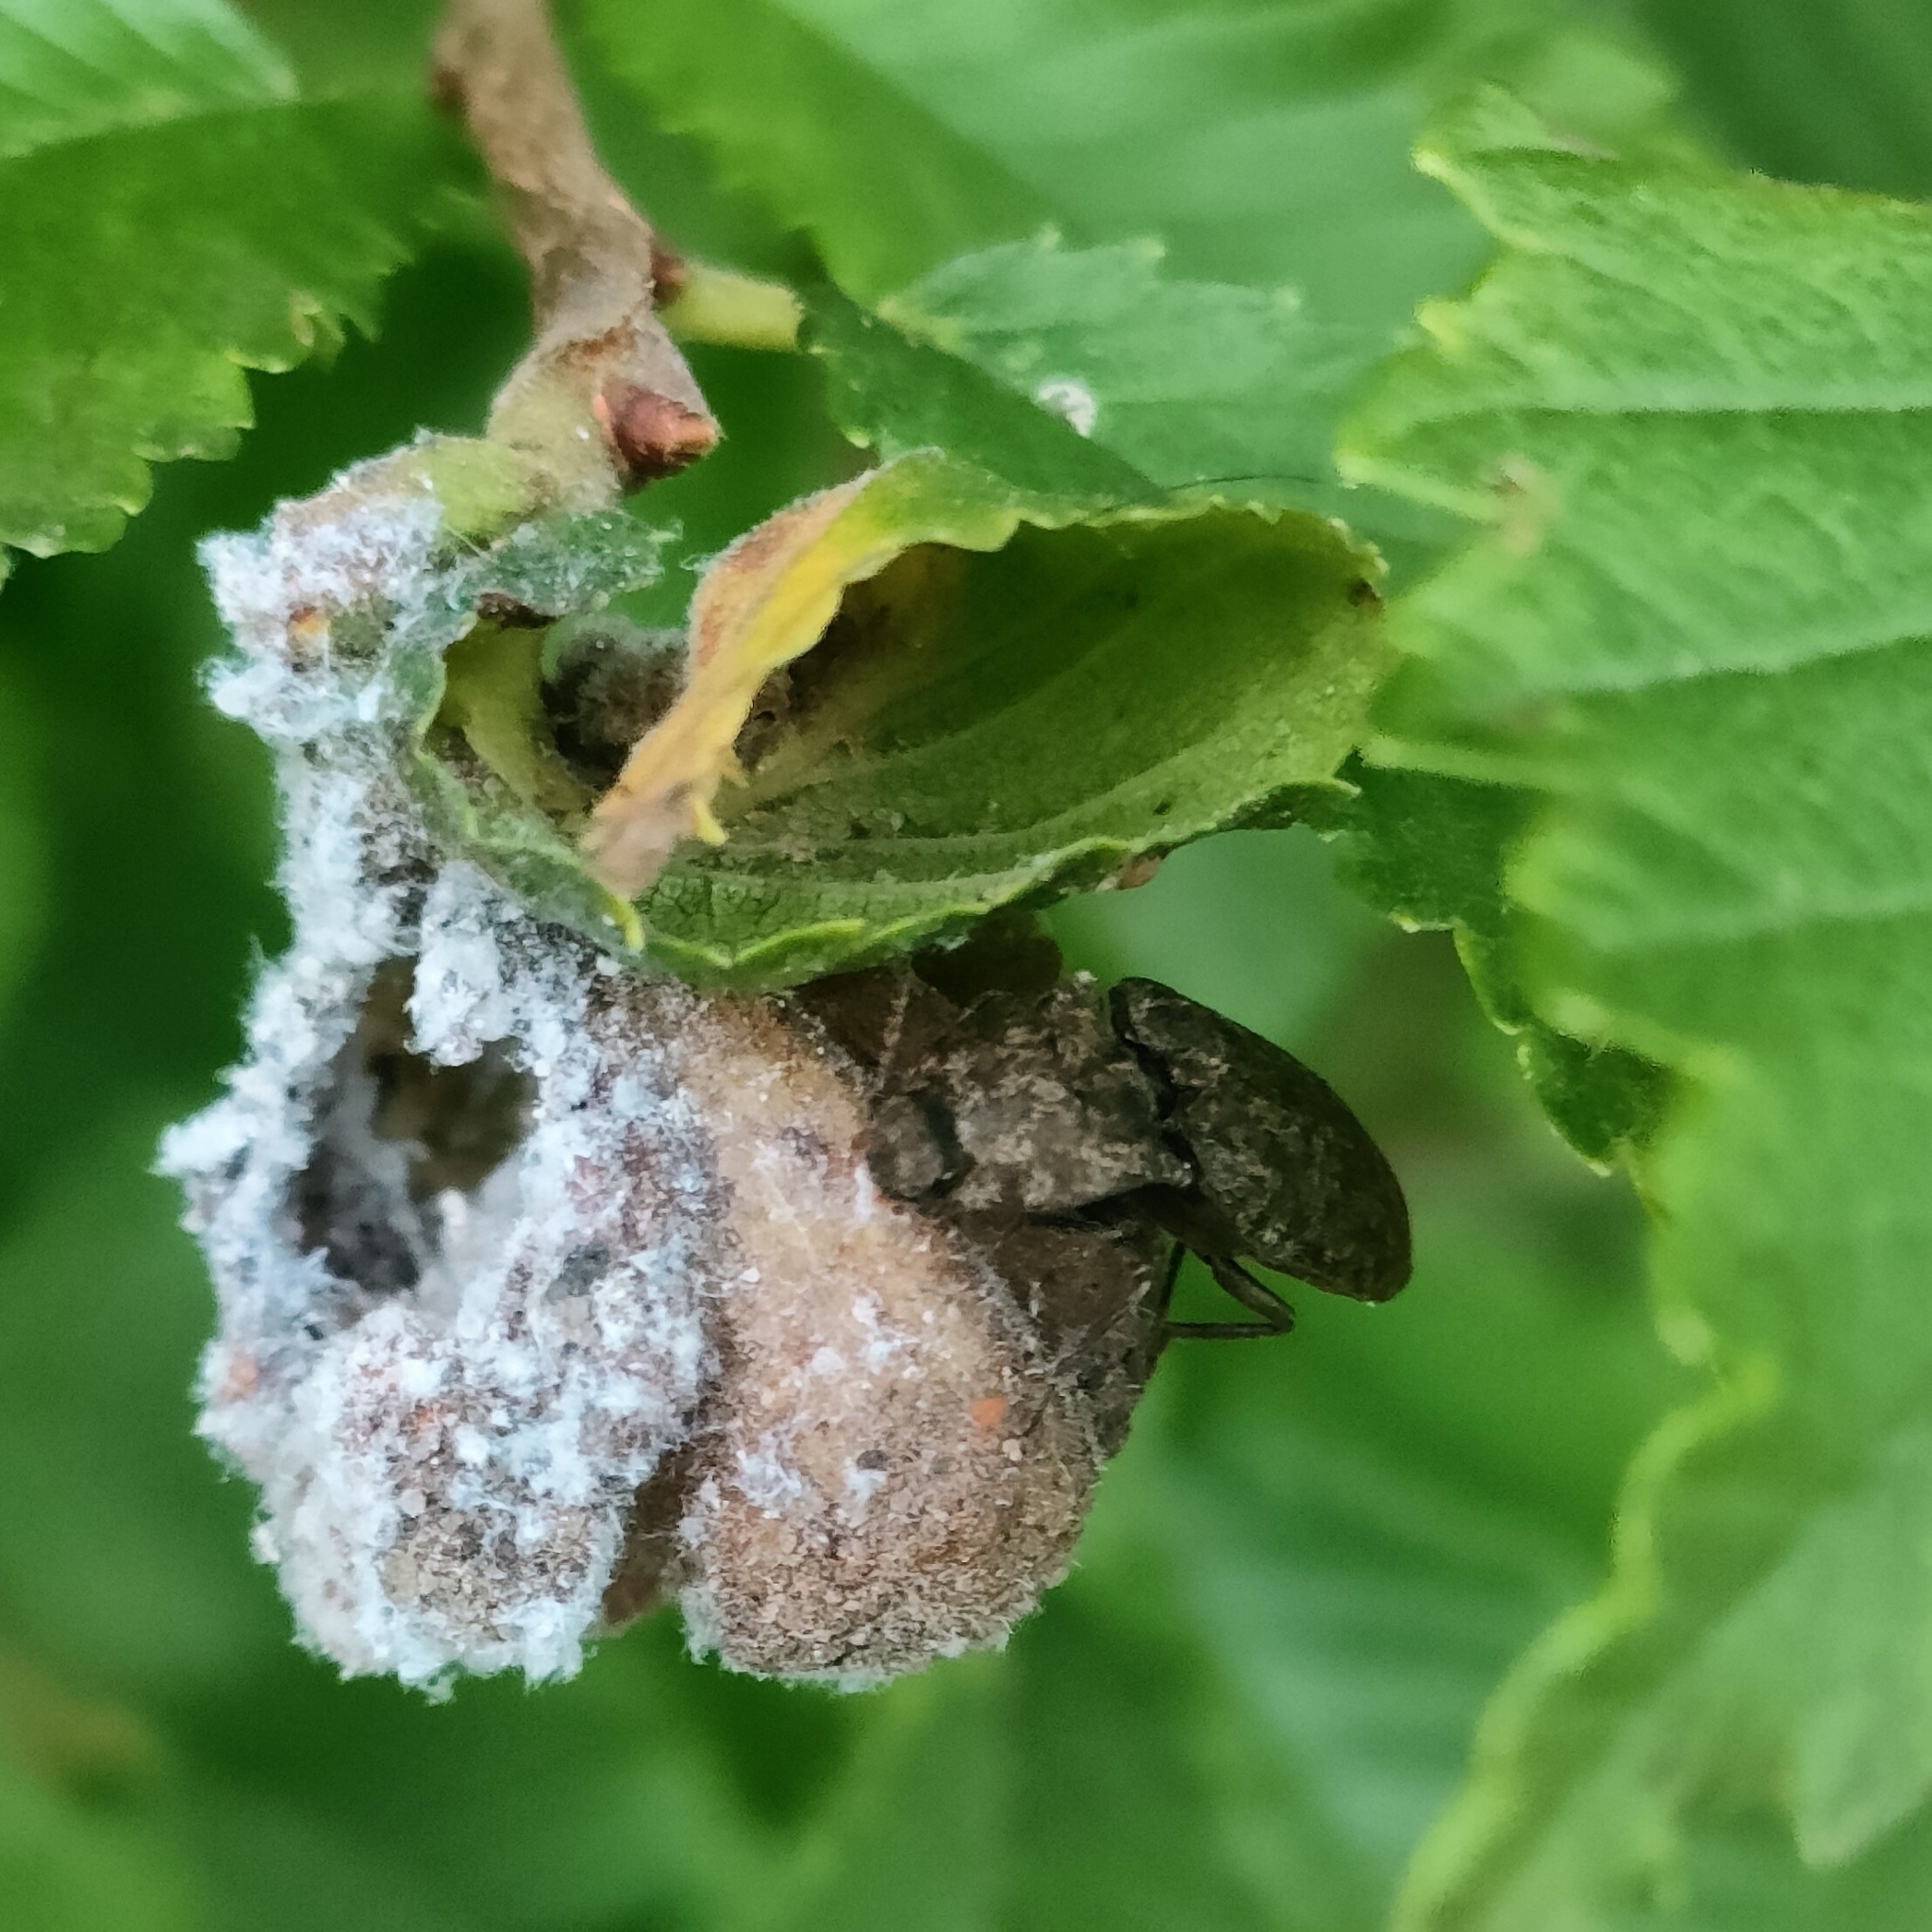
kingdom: Animalia
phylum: Arthropoda
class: Insecta
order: Coleoptera
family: Elateridae
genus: Agrypnus
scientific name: Agrypnus murinus
